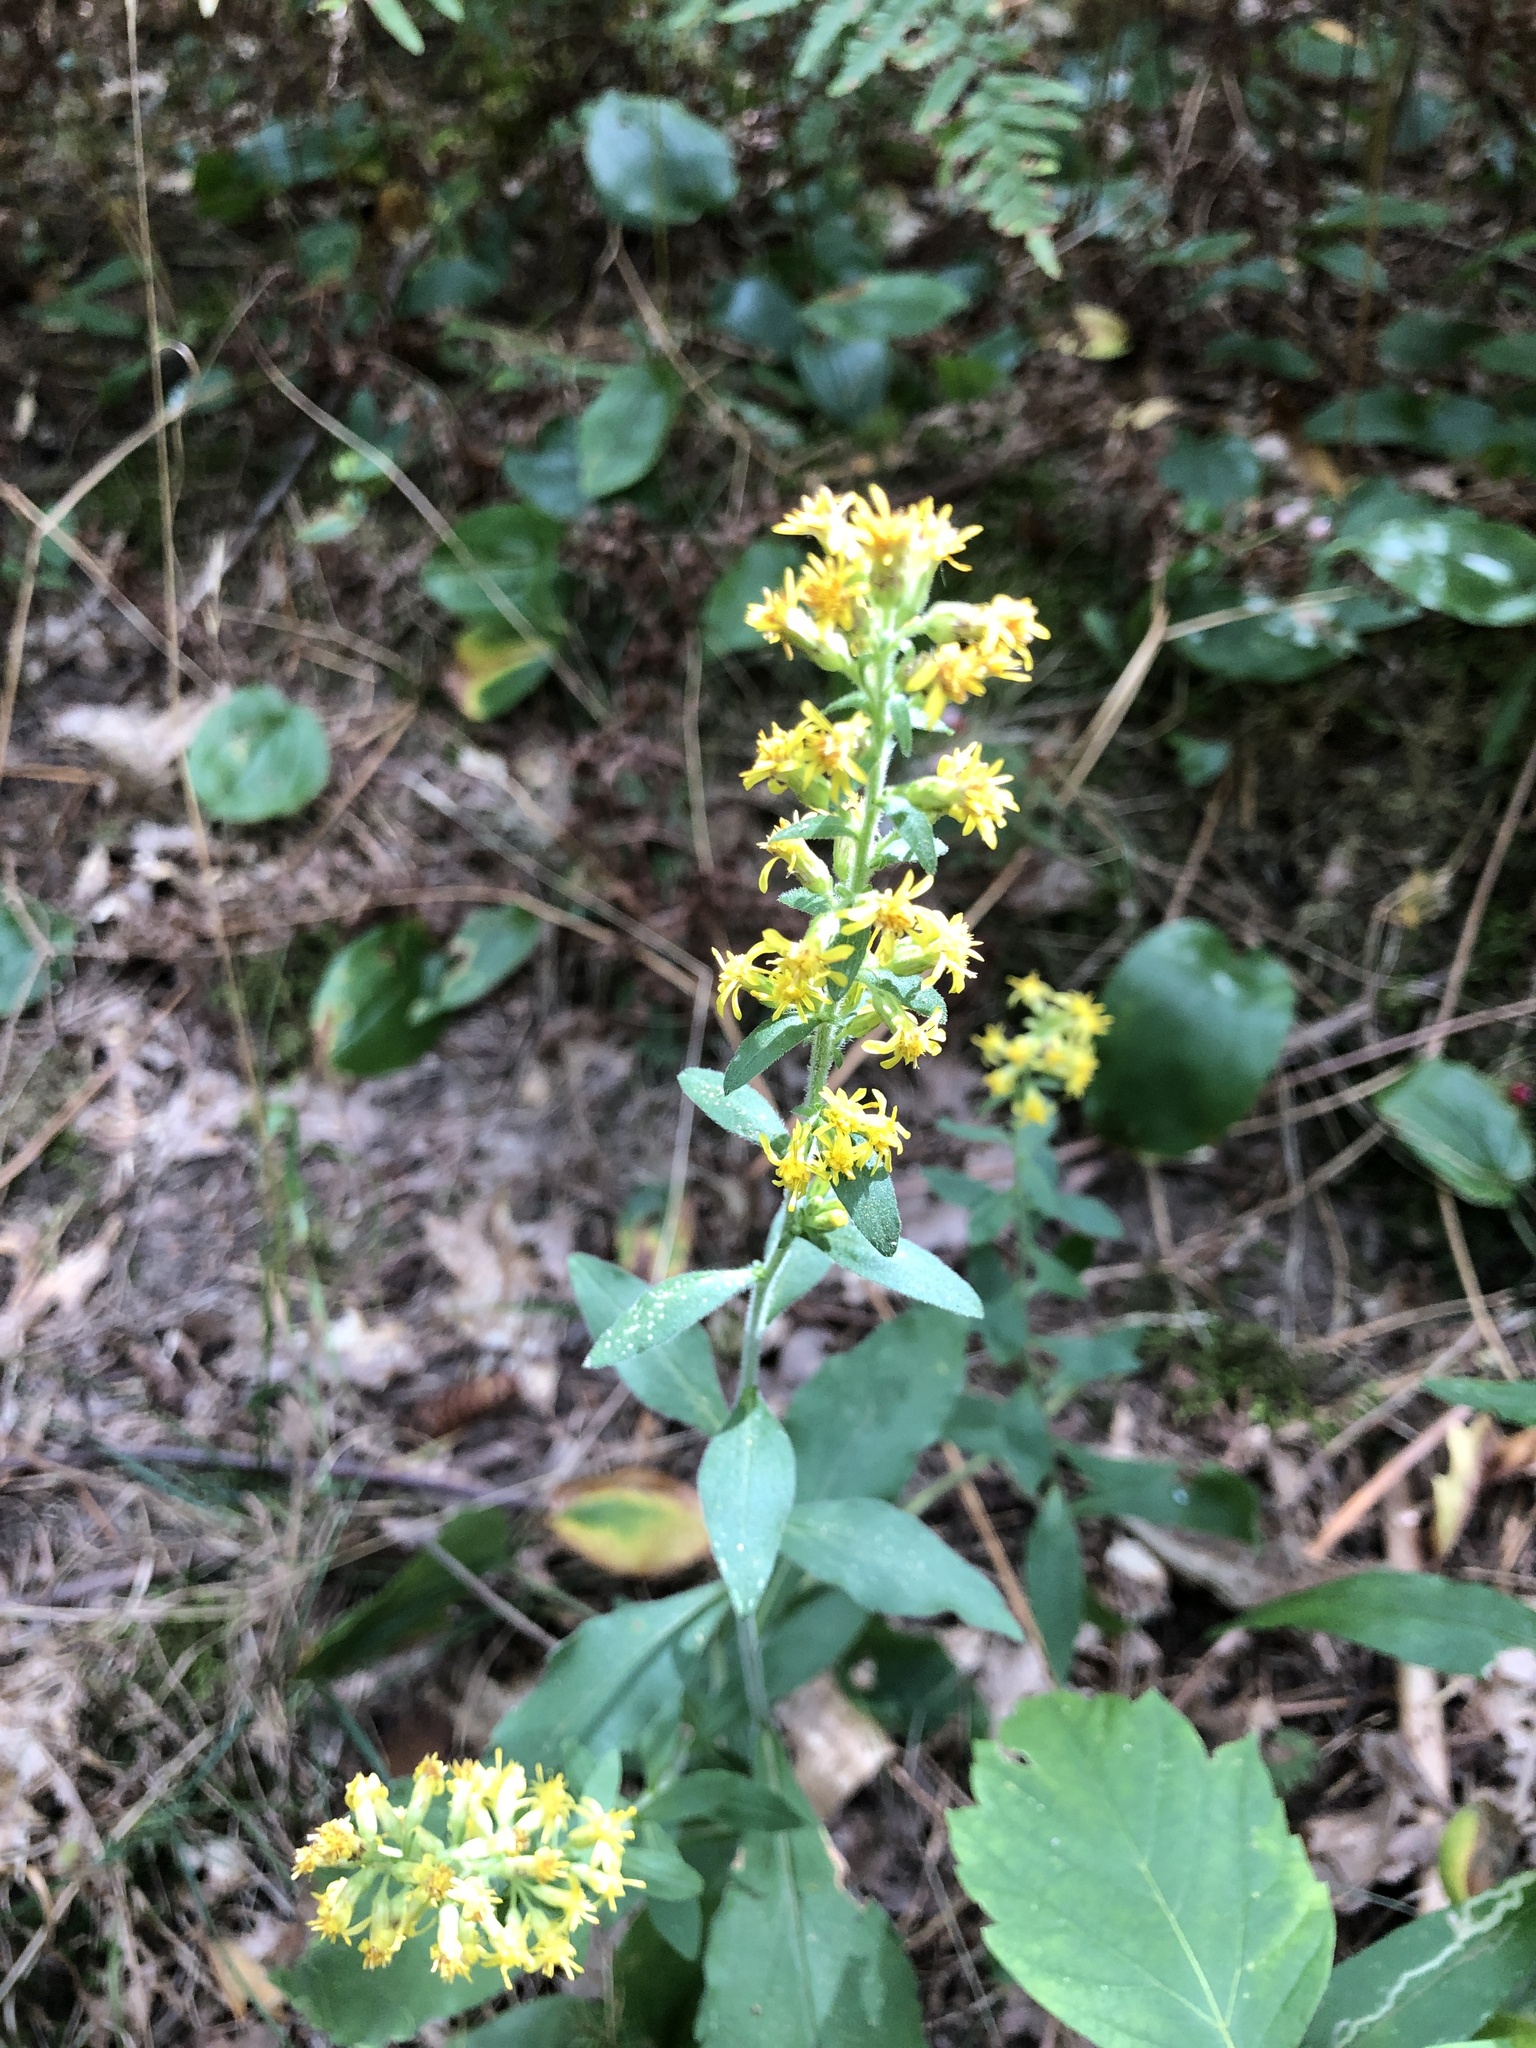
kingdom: Plantae
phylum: Tracheophyta
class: Magnoliopsida
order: Asterales
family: Asteraceae
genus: Solidago
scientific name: Solidago hispida
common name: Hairy goldenrod
